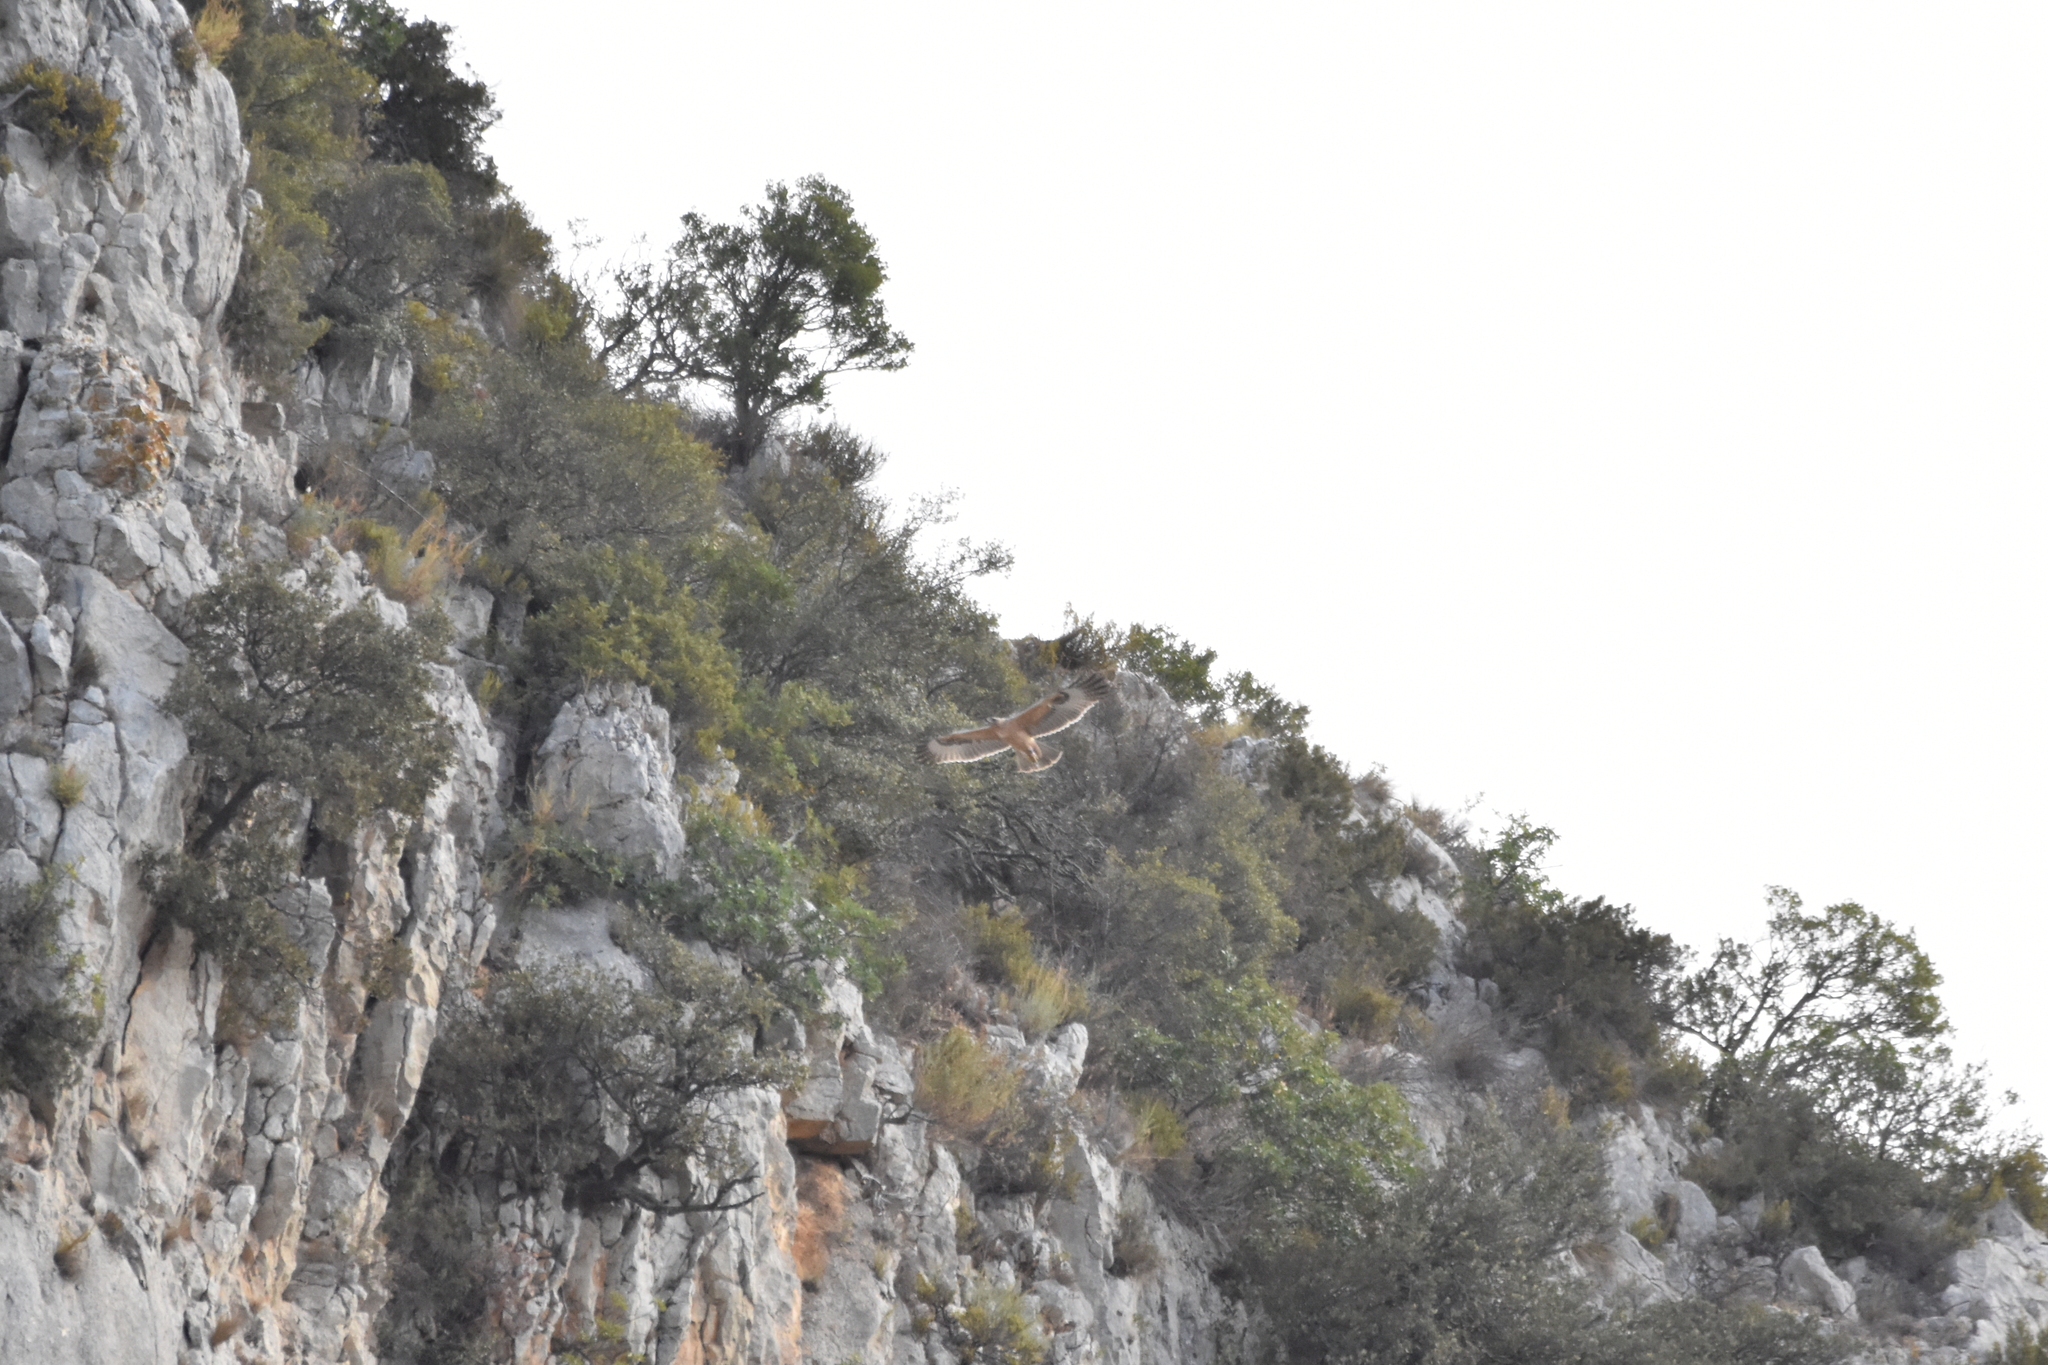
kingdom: Animalia
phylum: Chordata
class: Aves
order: Accipitriformes
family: Accipitridae
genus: Aquila
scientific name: Aquila fasciata
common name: Bonelli's eagle
